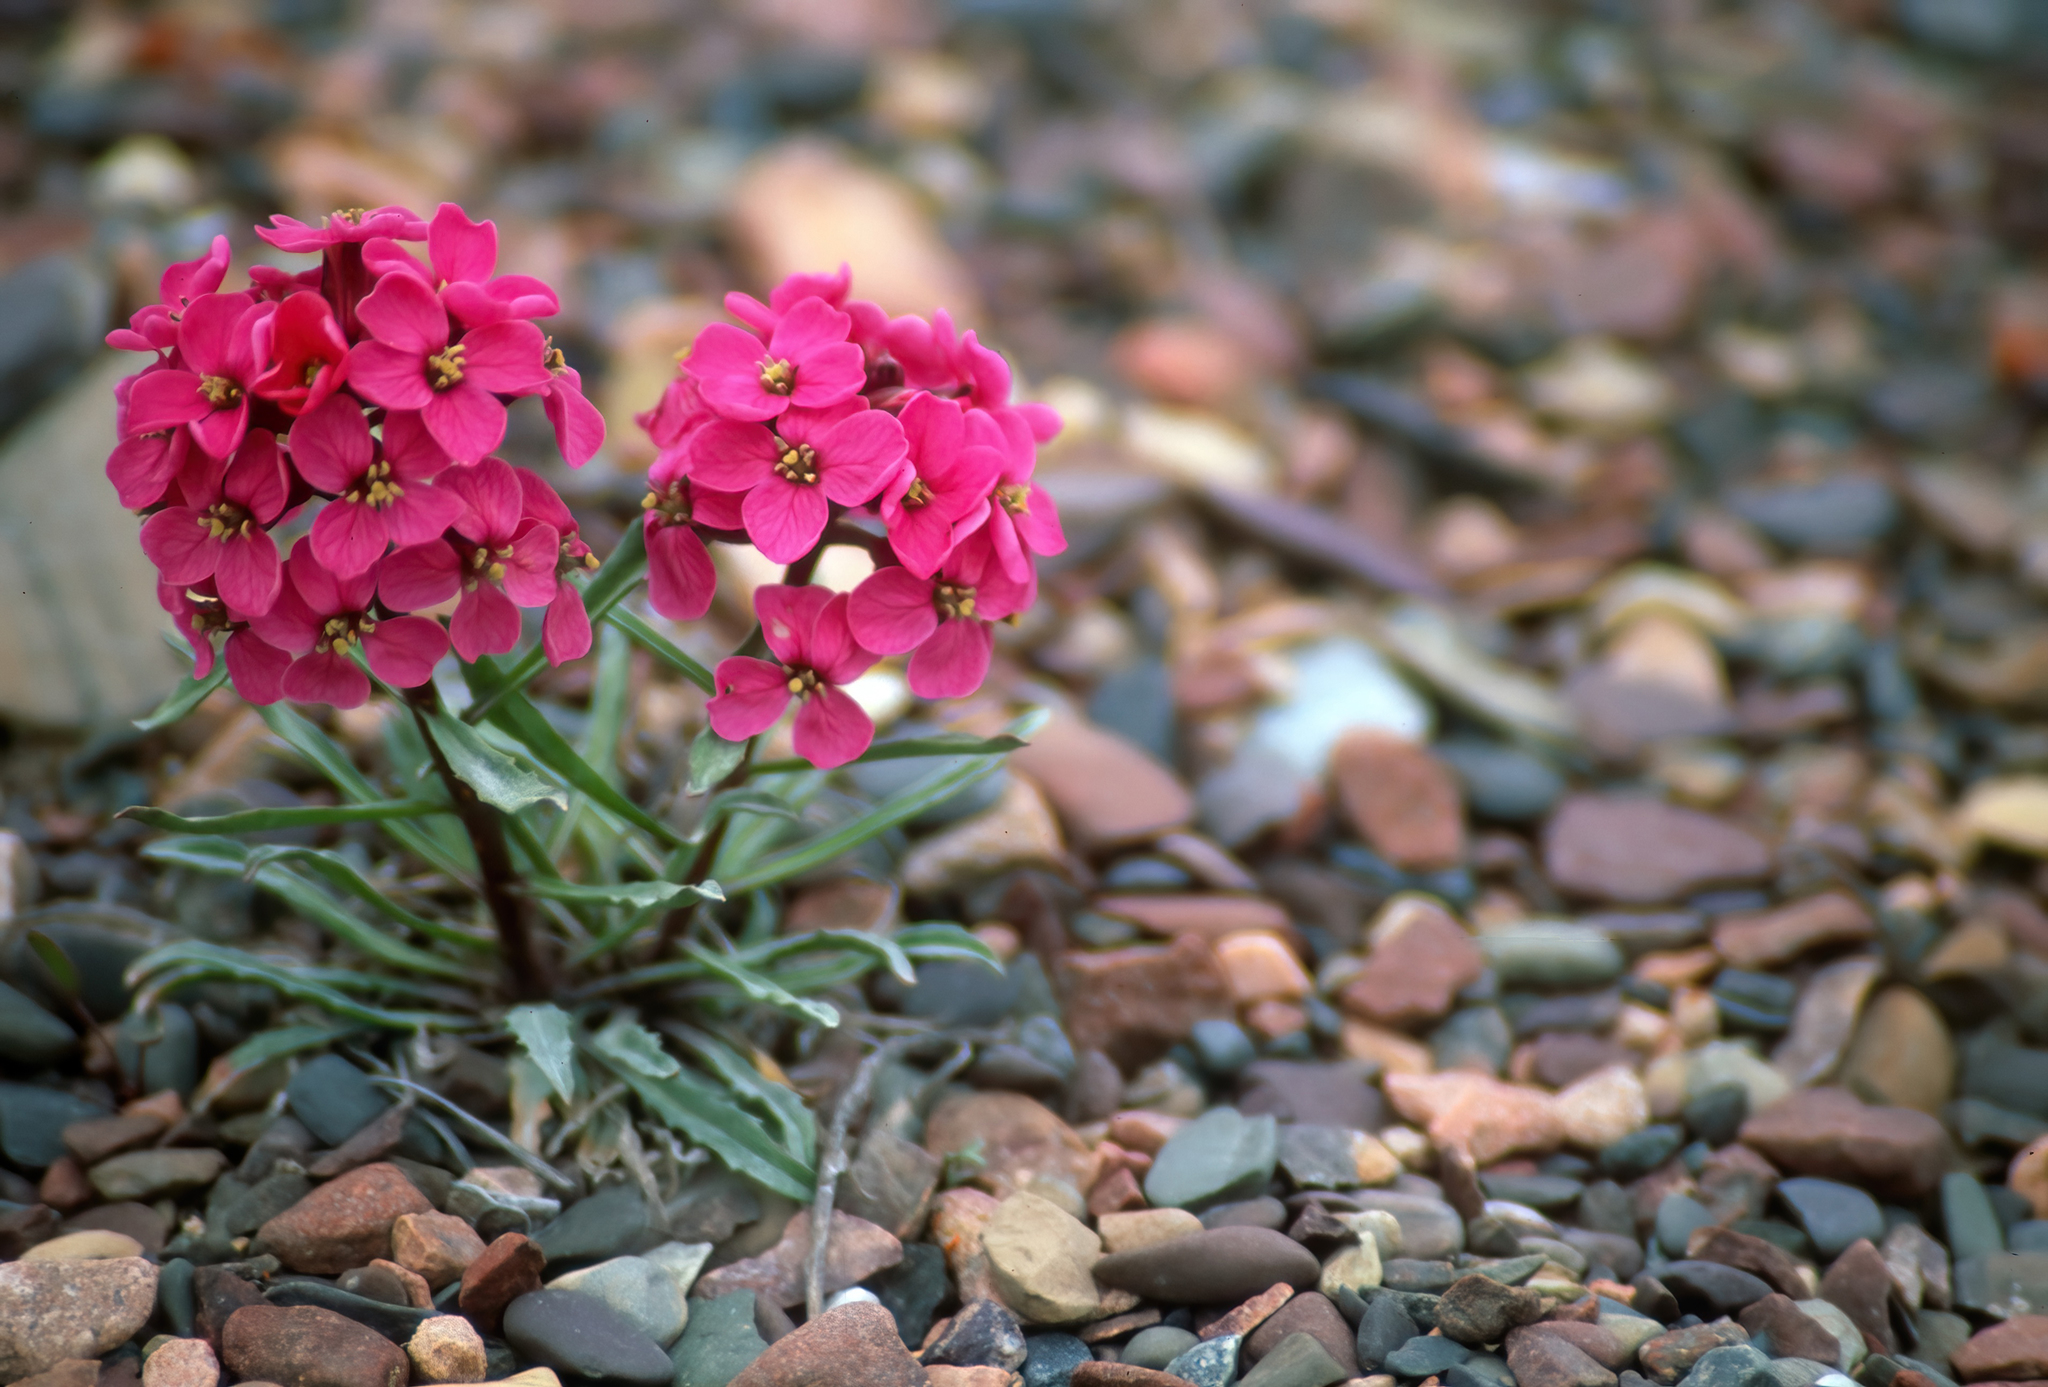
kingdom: Plantae
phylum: Tracheophyta
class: Magnoliopsida
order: Brassicales
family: Brassicaceae
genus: Erysimum
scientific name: Erysimum pallasii
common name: Pallas' wallflower
